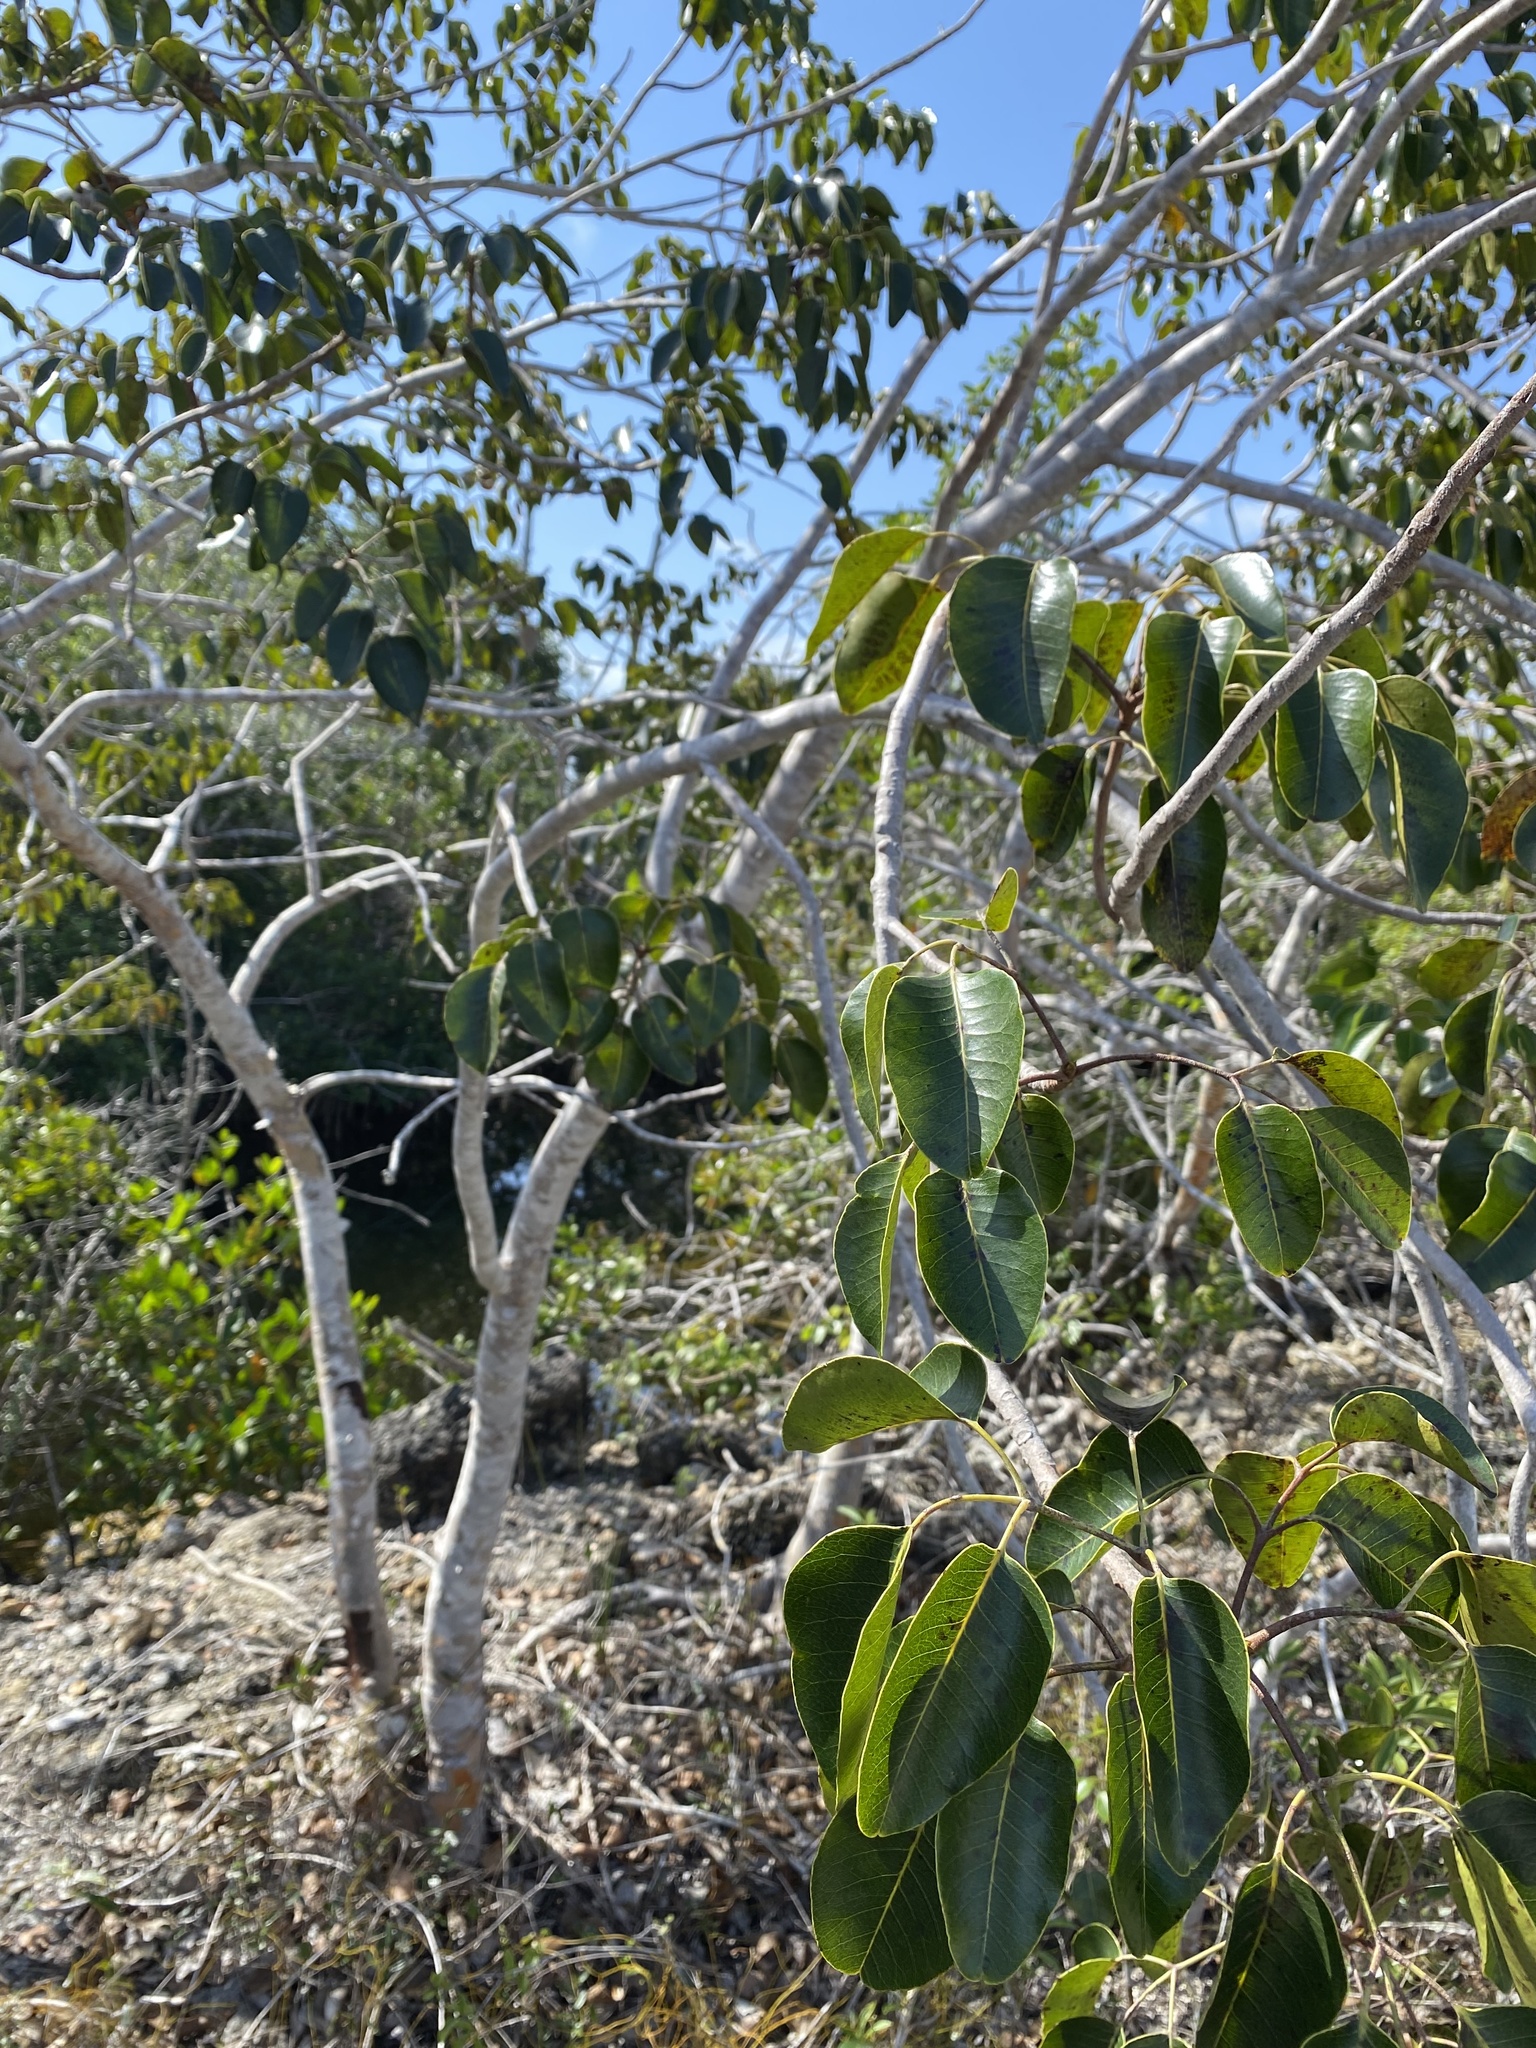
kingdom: Plantae
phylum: Tracheophyta
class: Magnoliopsida
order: Sapindales
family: Anacardiaceae
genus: Metopium
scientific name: Metopium toxiferum
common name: Florida poisontree
